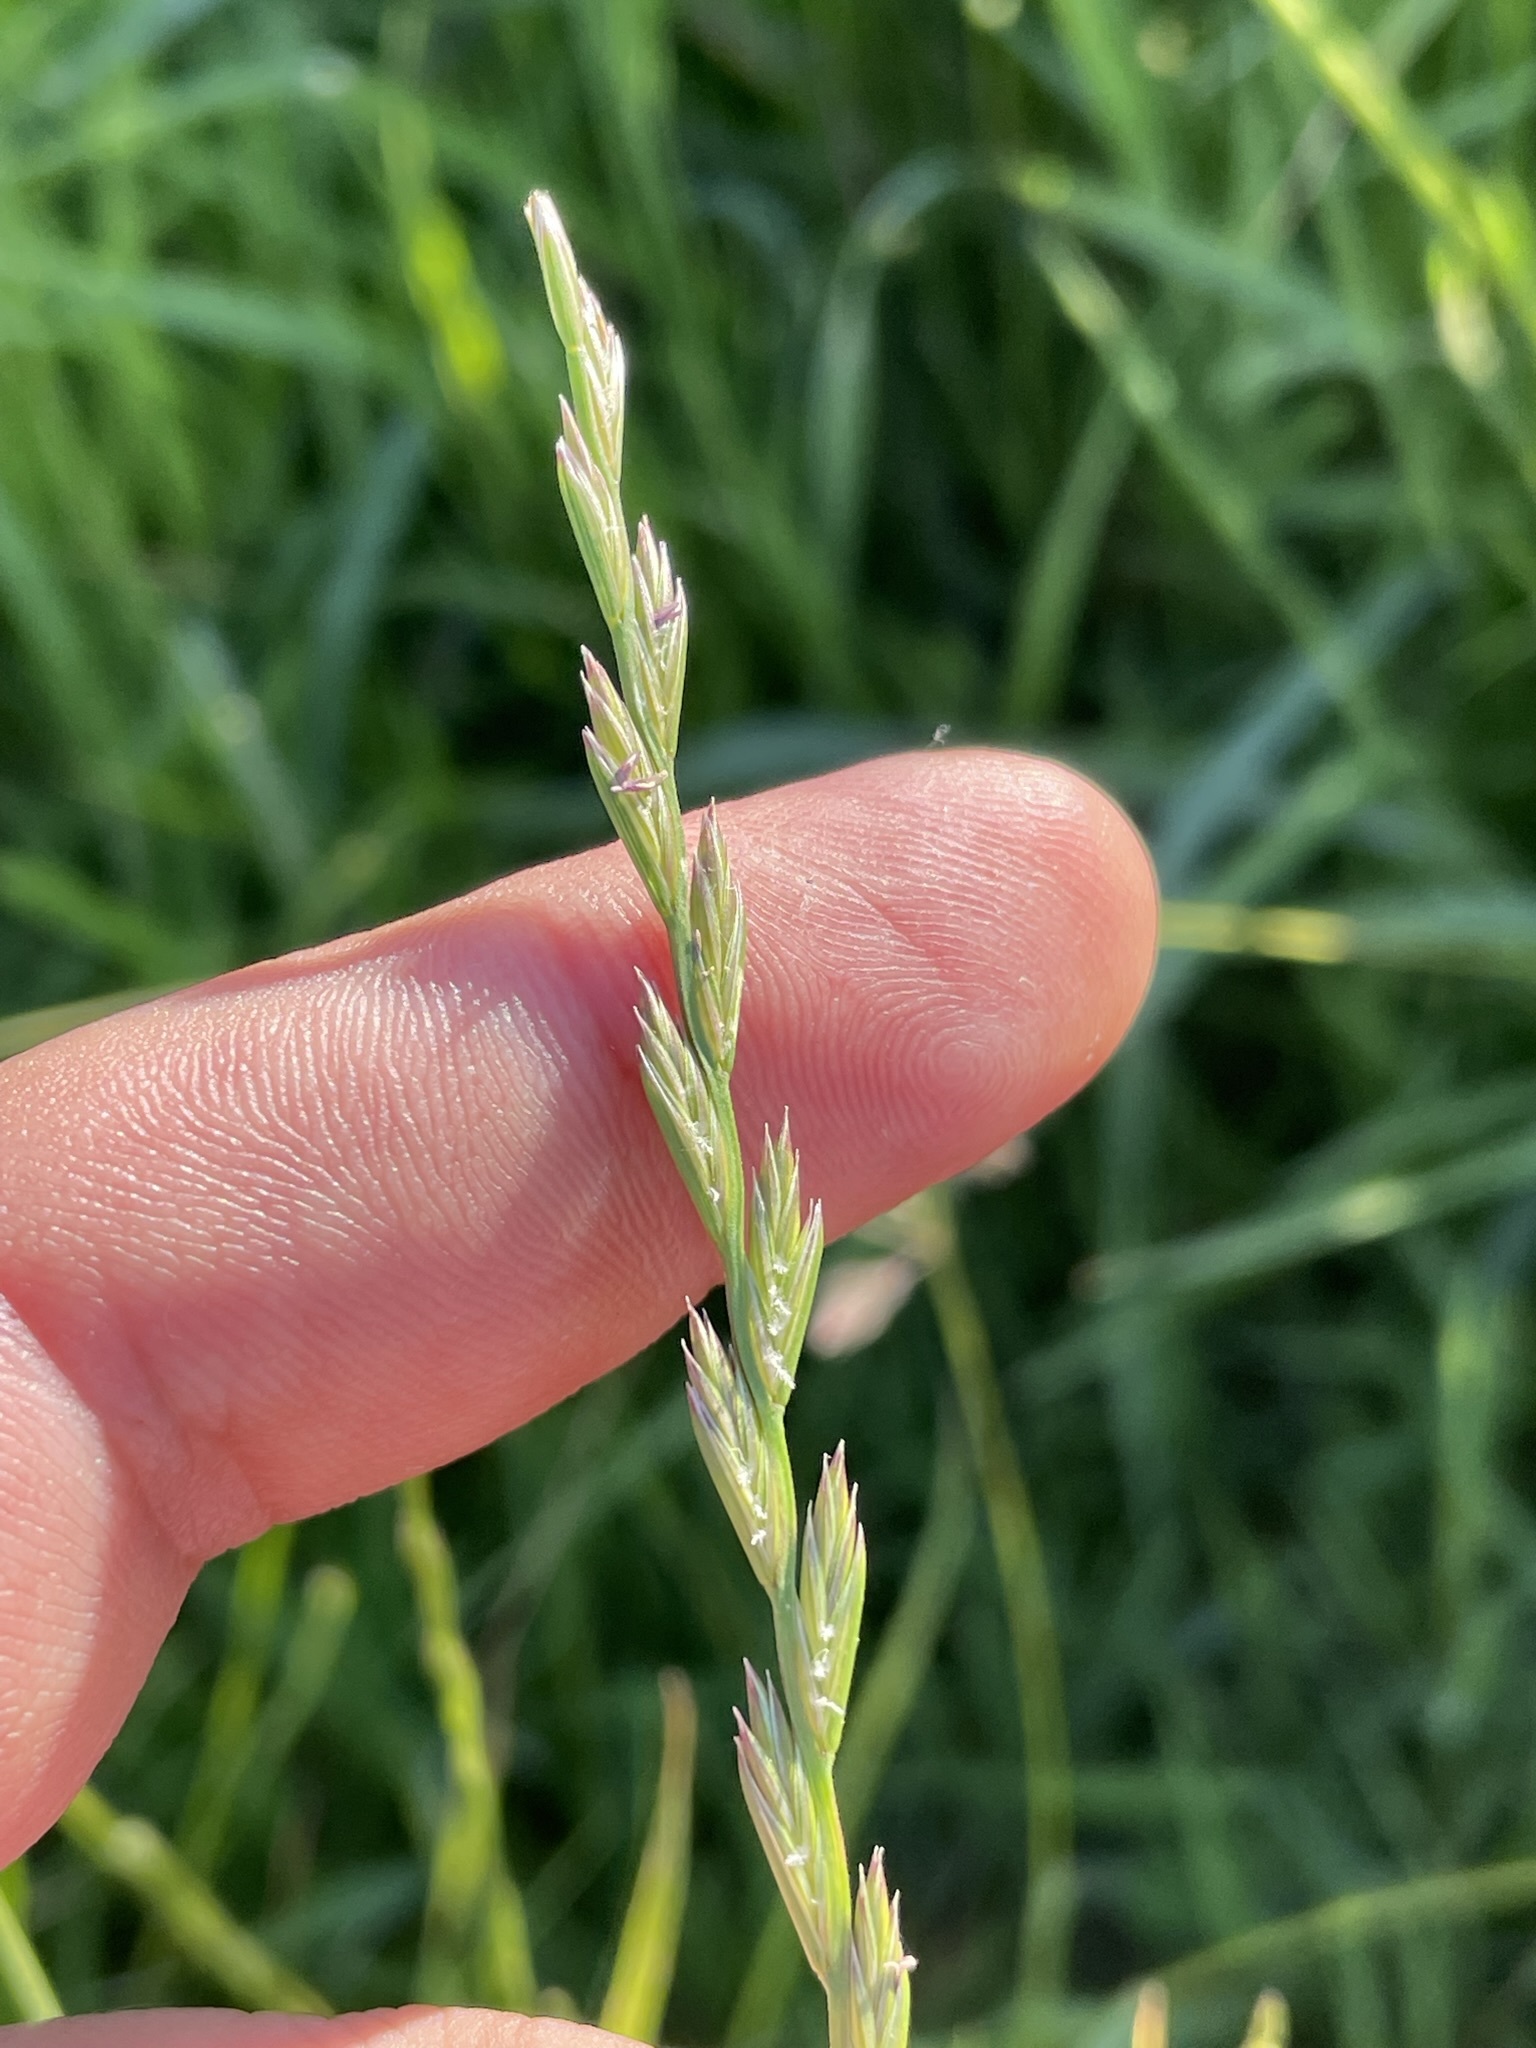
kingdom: Plantae
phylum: Tracheophyta
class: Liliopsida
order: Poales
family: Poaceae
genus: Lolium
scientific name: Lolium perenne
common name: Perennial ryegrass
